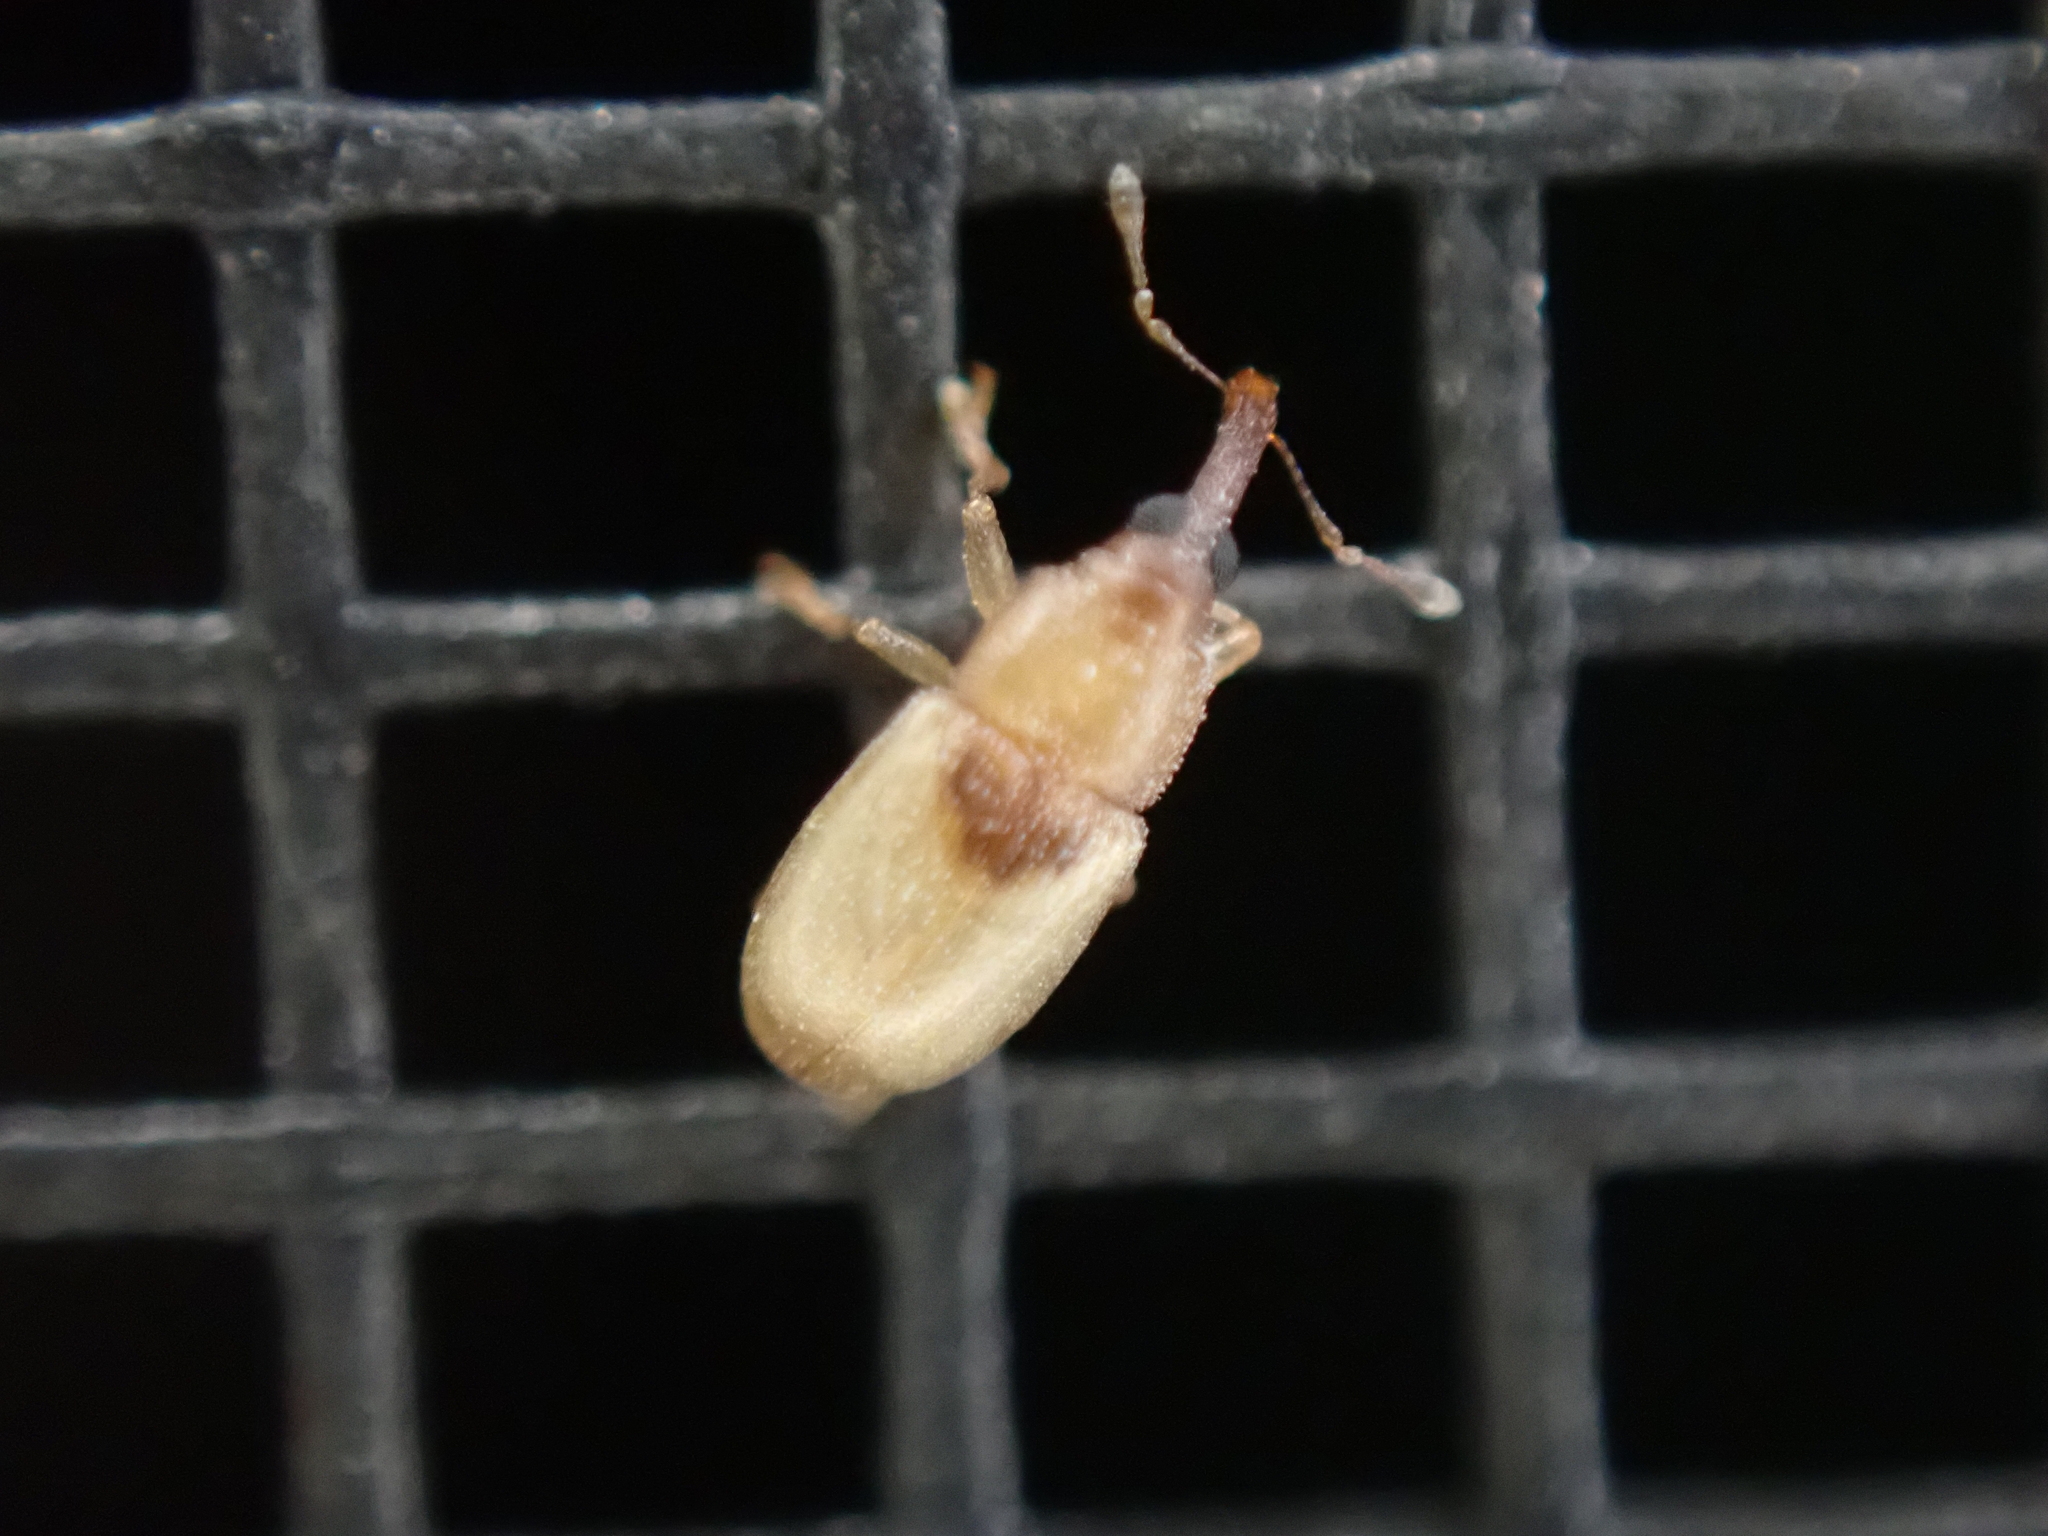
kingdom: Animalia
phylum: Arthropoda
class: Insecta
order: Coleoptera
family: Curculionidae
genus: Notolomus
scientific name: Notolomus basalis
